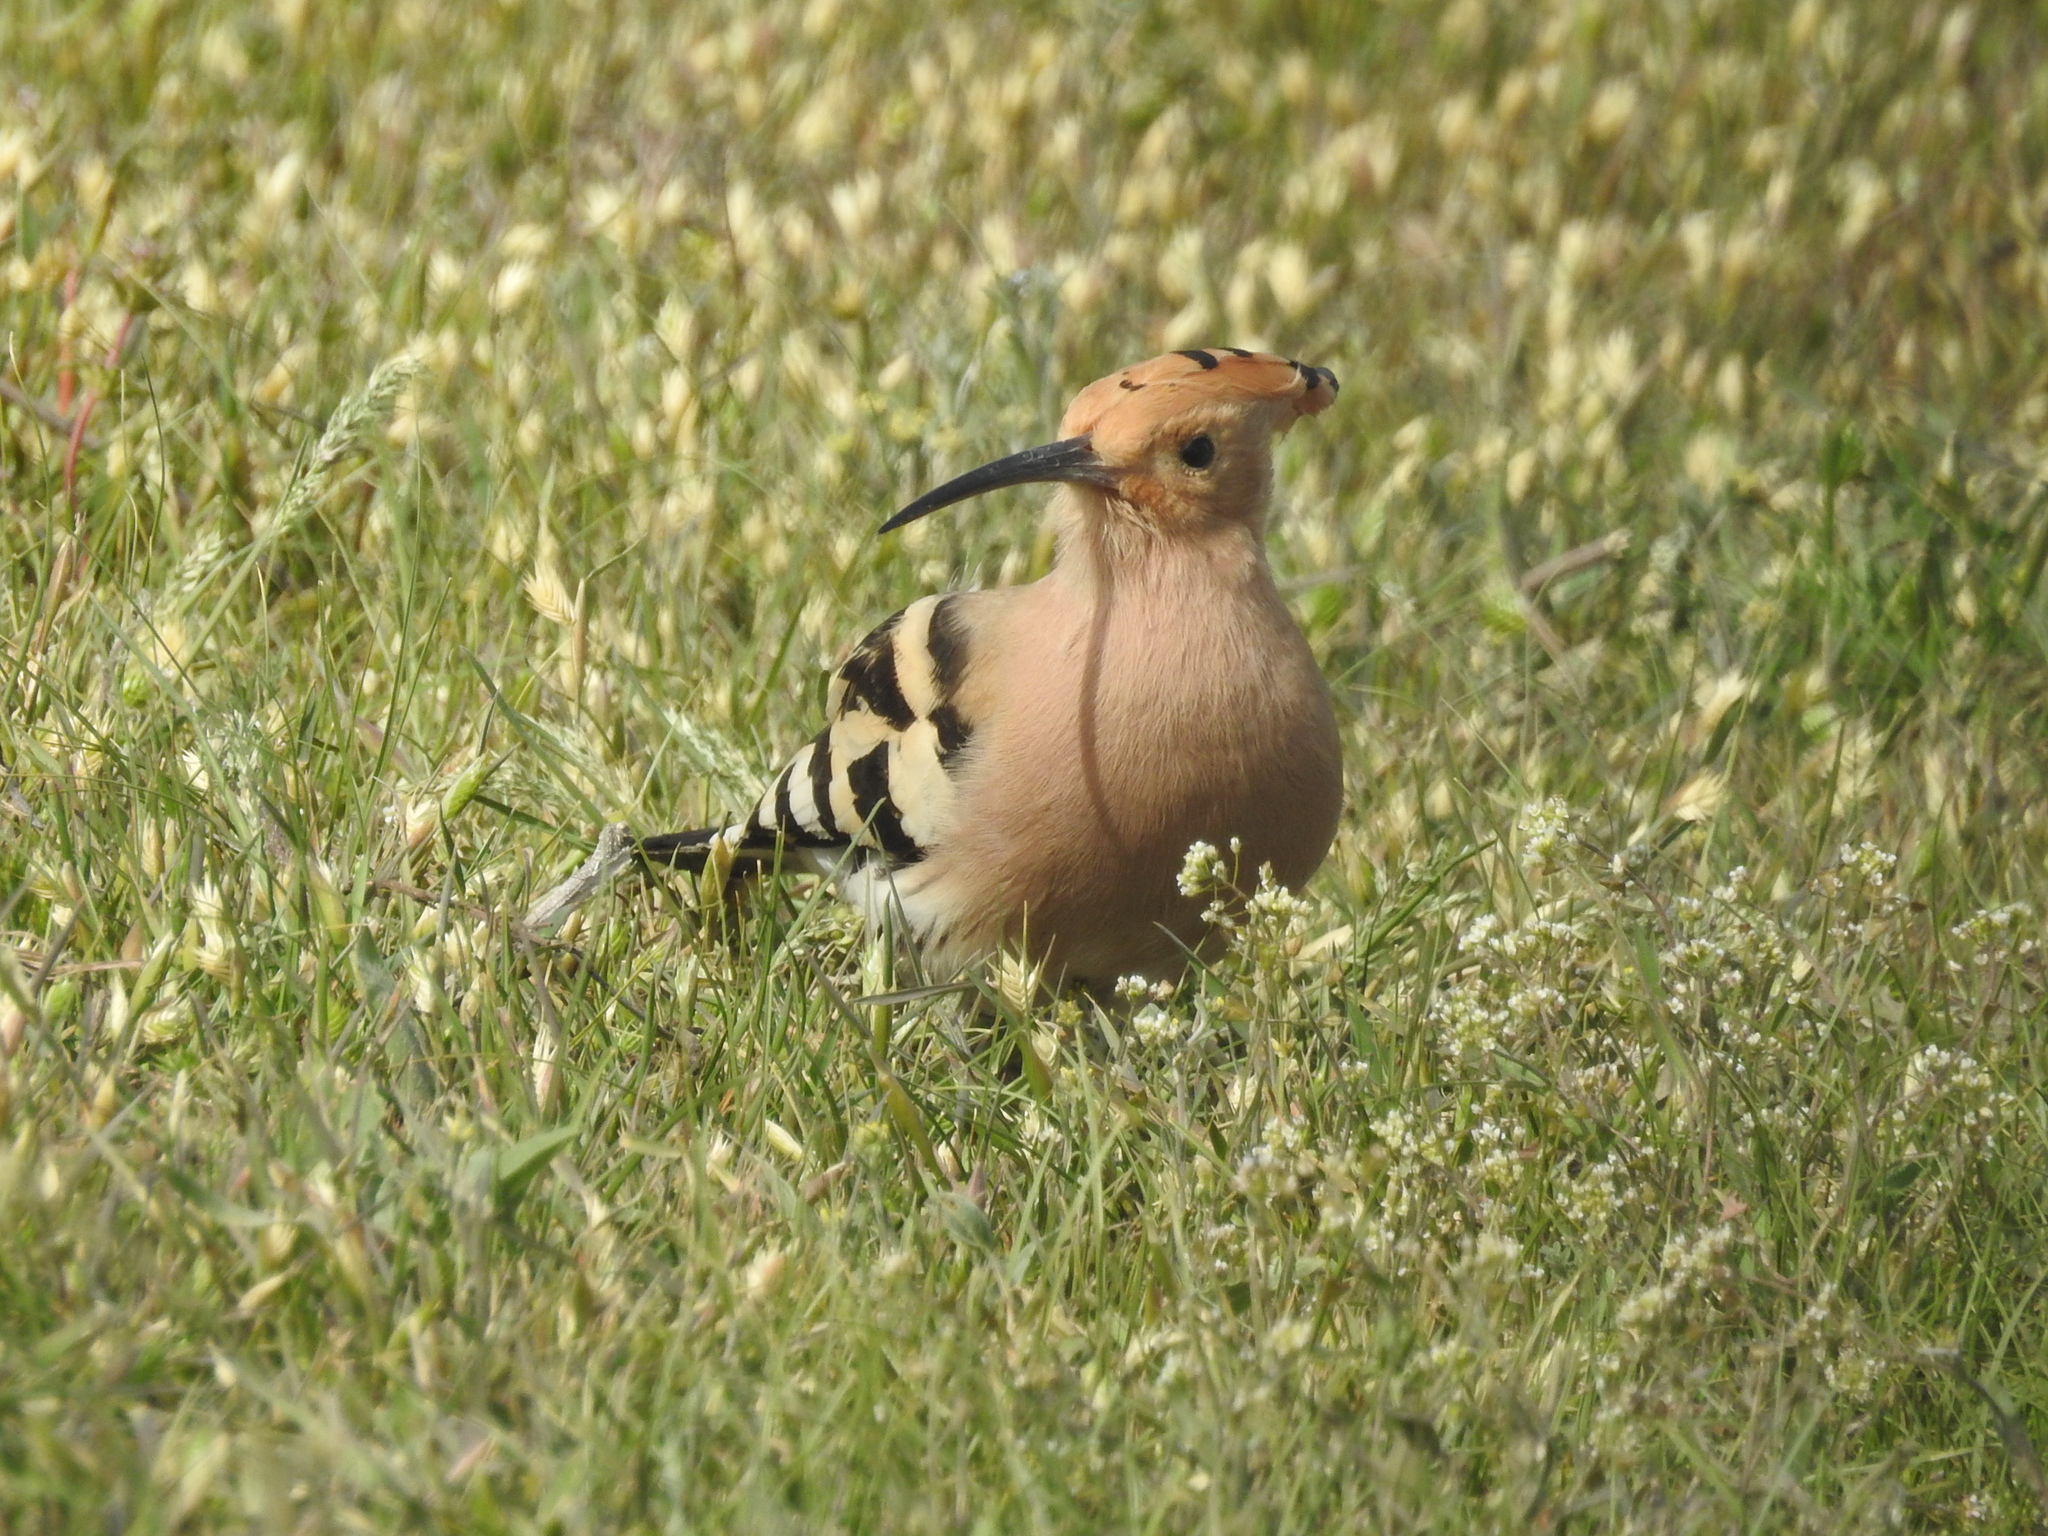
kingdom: Animalia
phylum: Chordata
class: Aves
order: Bucerotiformes
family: Upupidae
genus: Upupa
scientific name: Upupa epops
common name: Eurasian hoopoe
